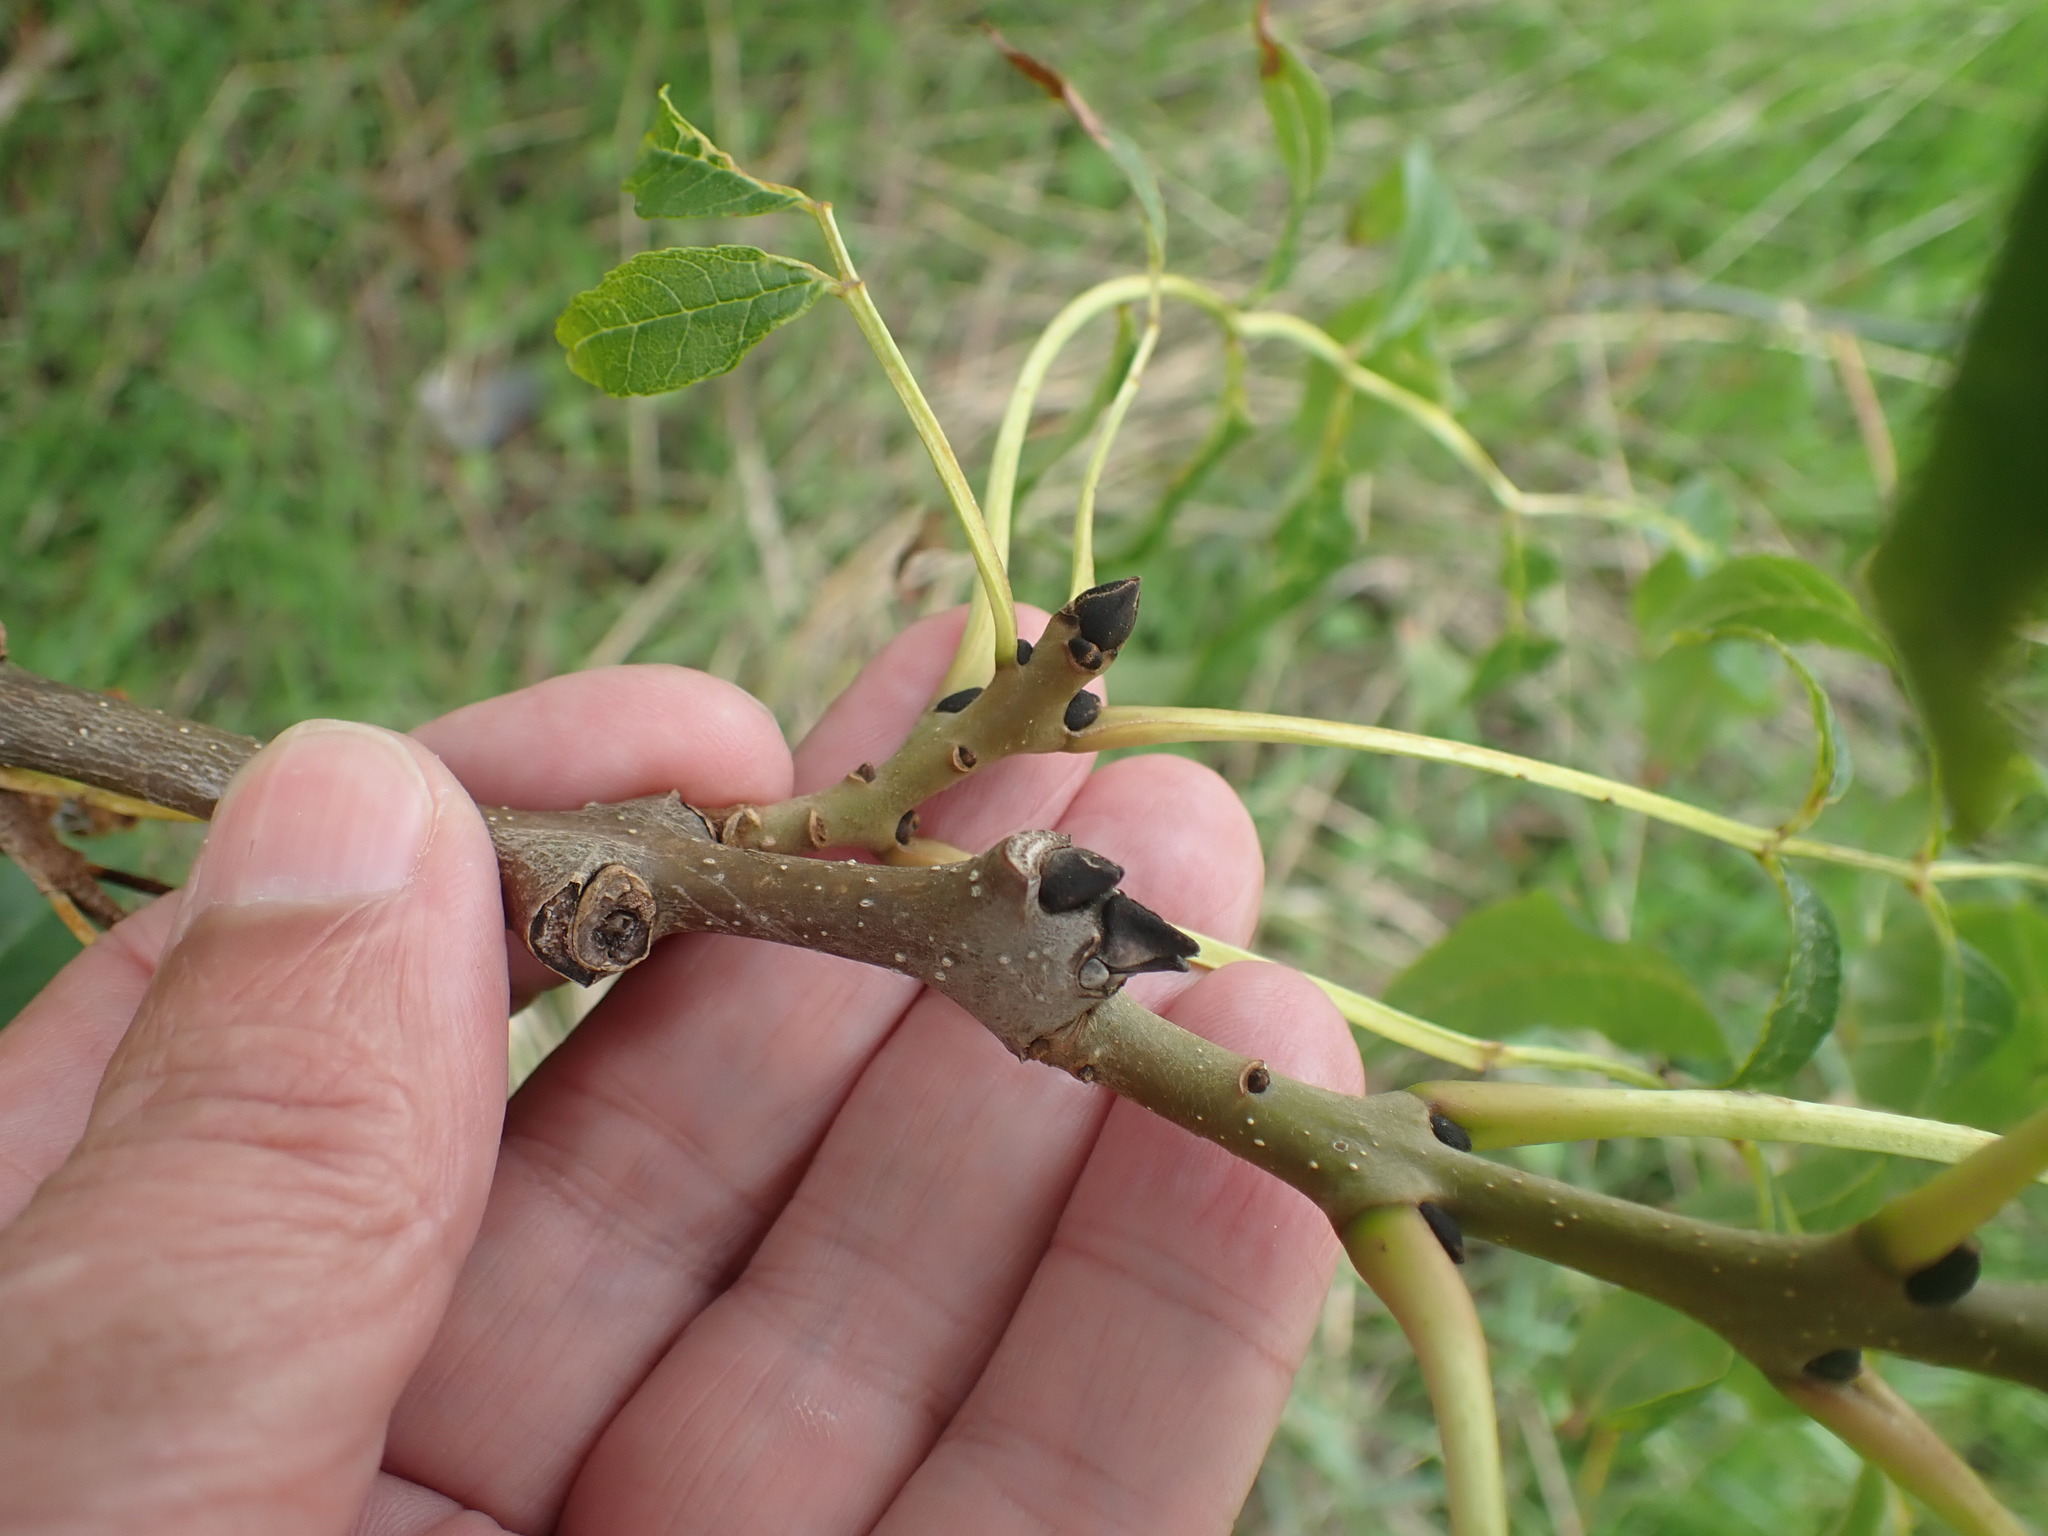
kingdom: Plantae
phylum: Tracheophyta
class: Magnoliopsida
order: Lamiales
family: Oleaceae
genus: Fraxinus
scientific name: Fraxinus excelsior
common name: European ash
